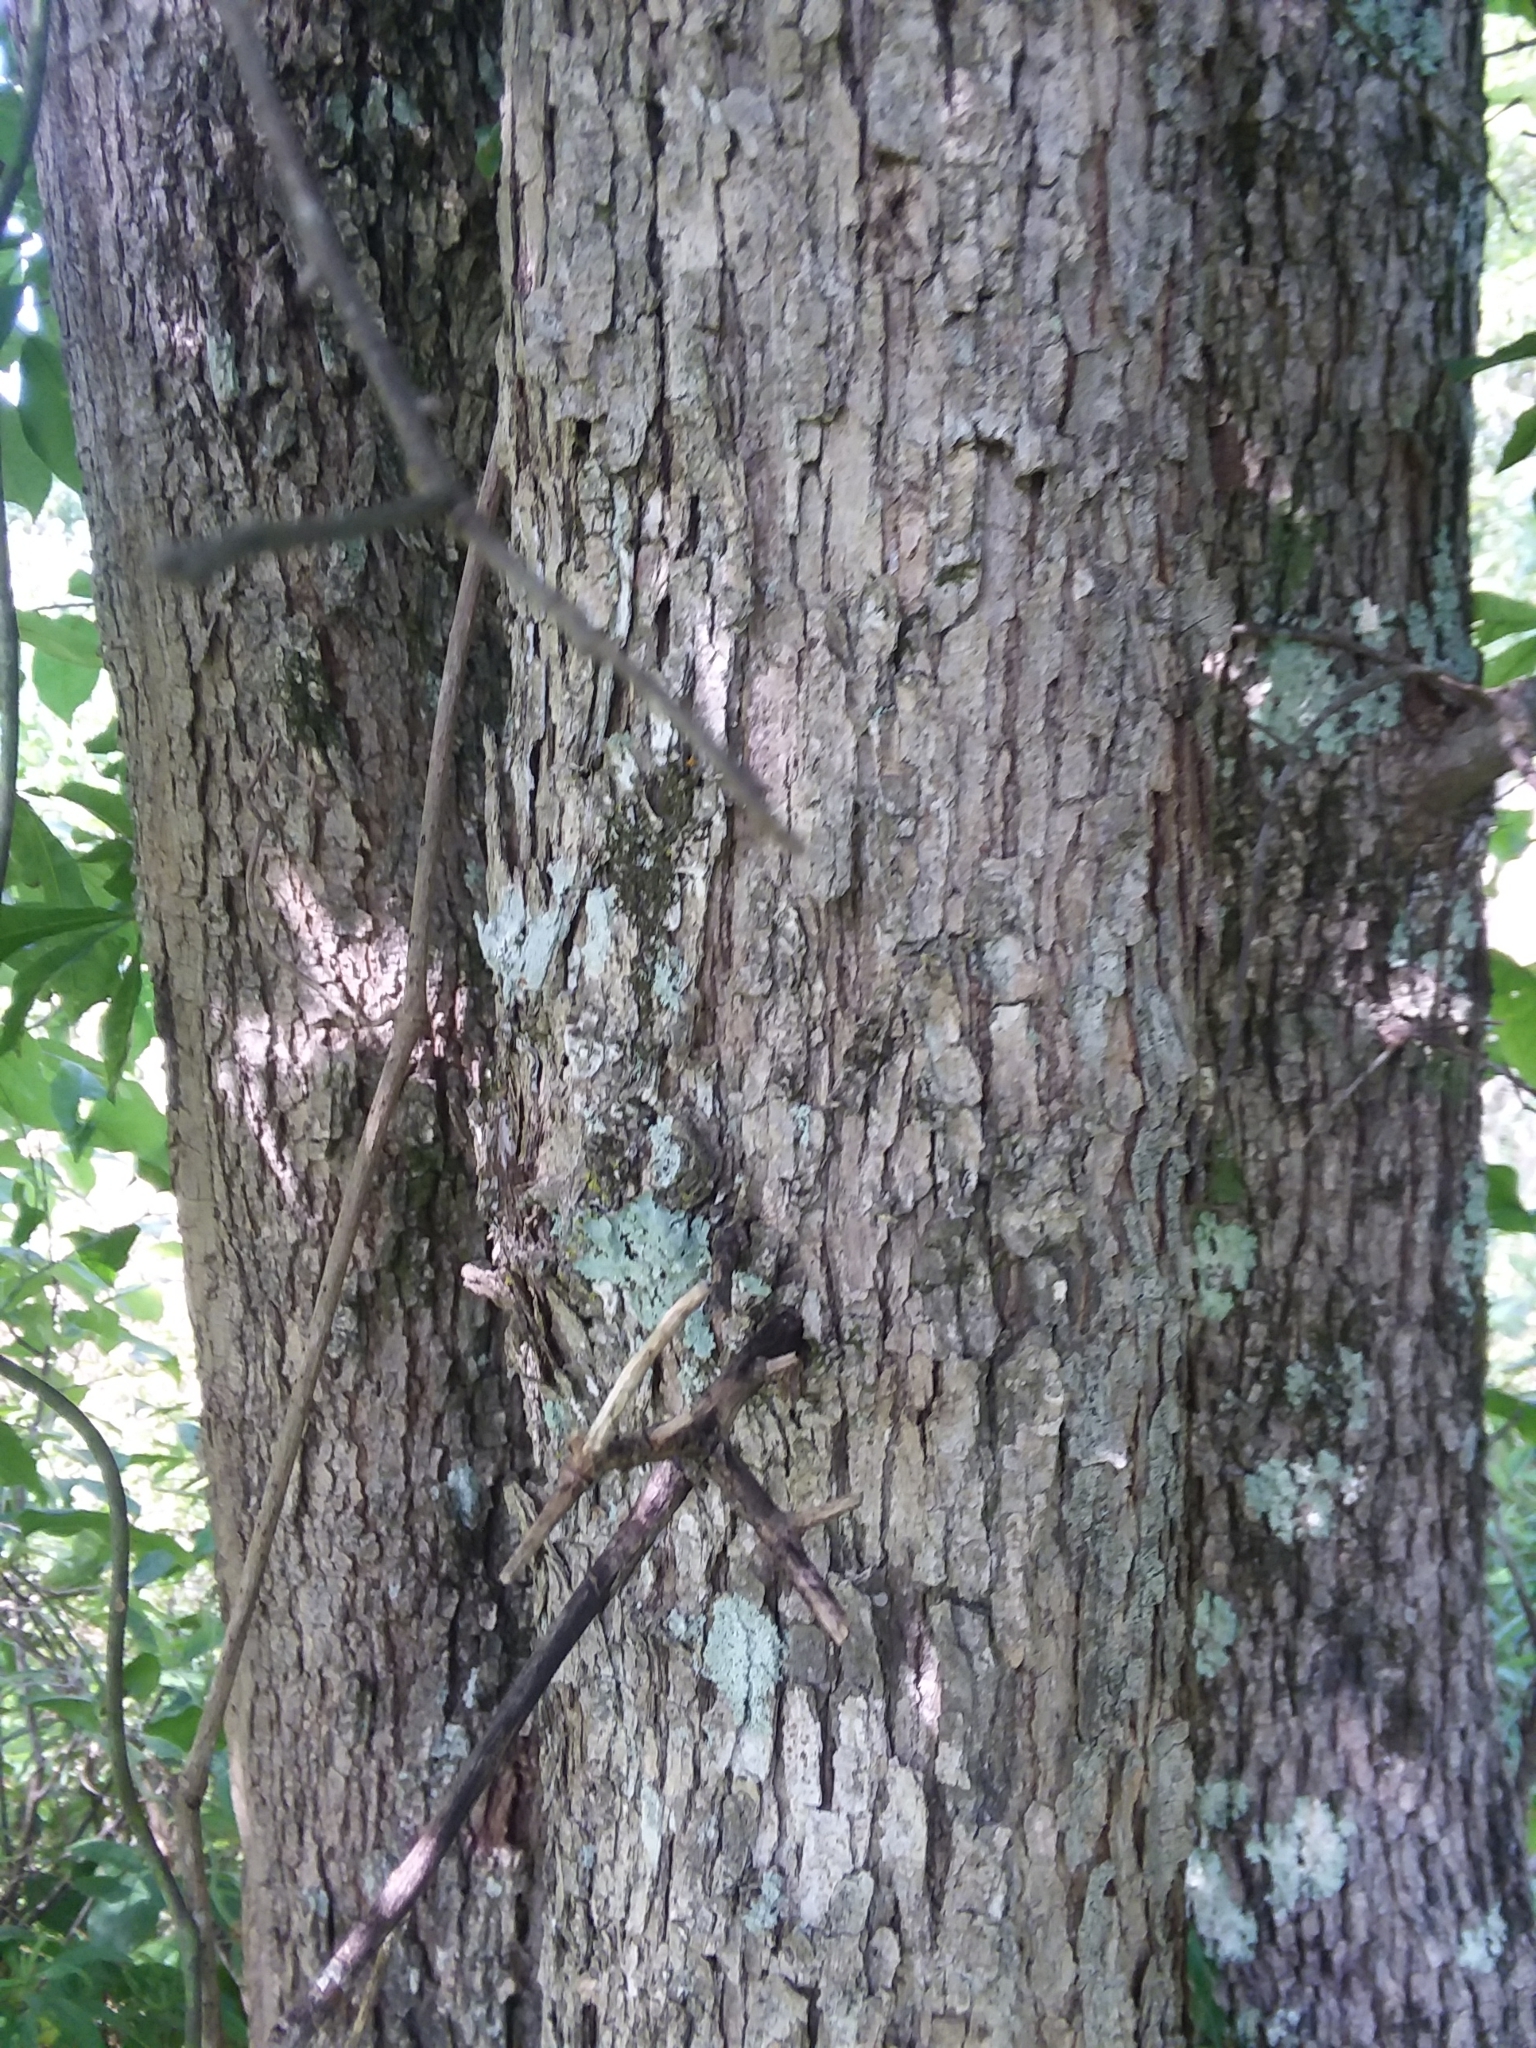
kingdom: Plantae
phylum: Tracheophyta
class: Magnoliopsida
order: Fagales
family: Fagaceae
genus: Quercus
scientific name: Quercus sinuata
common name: Durand oak
